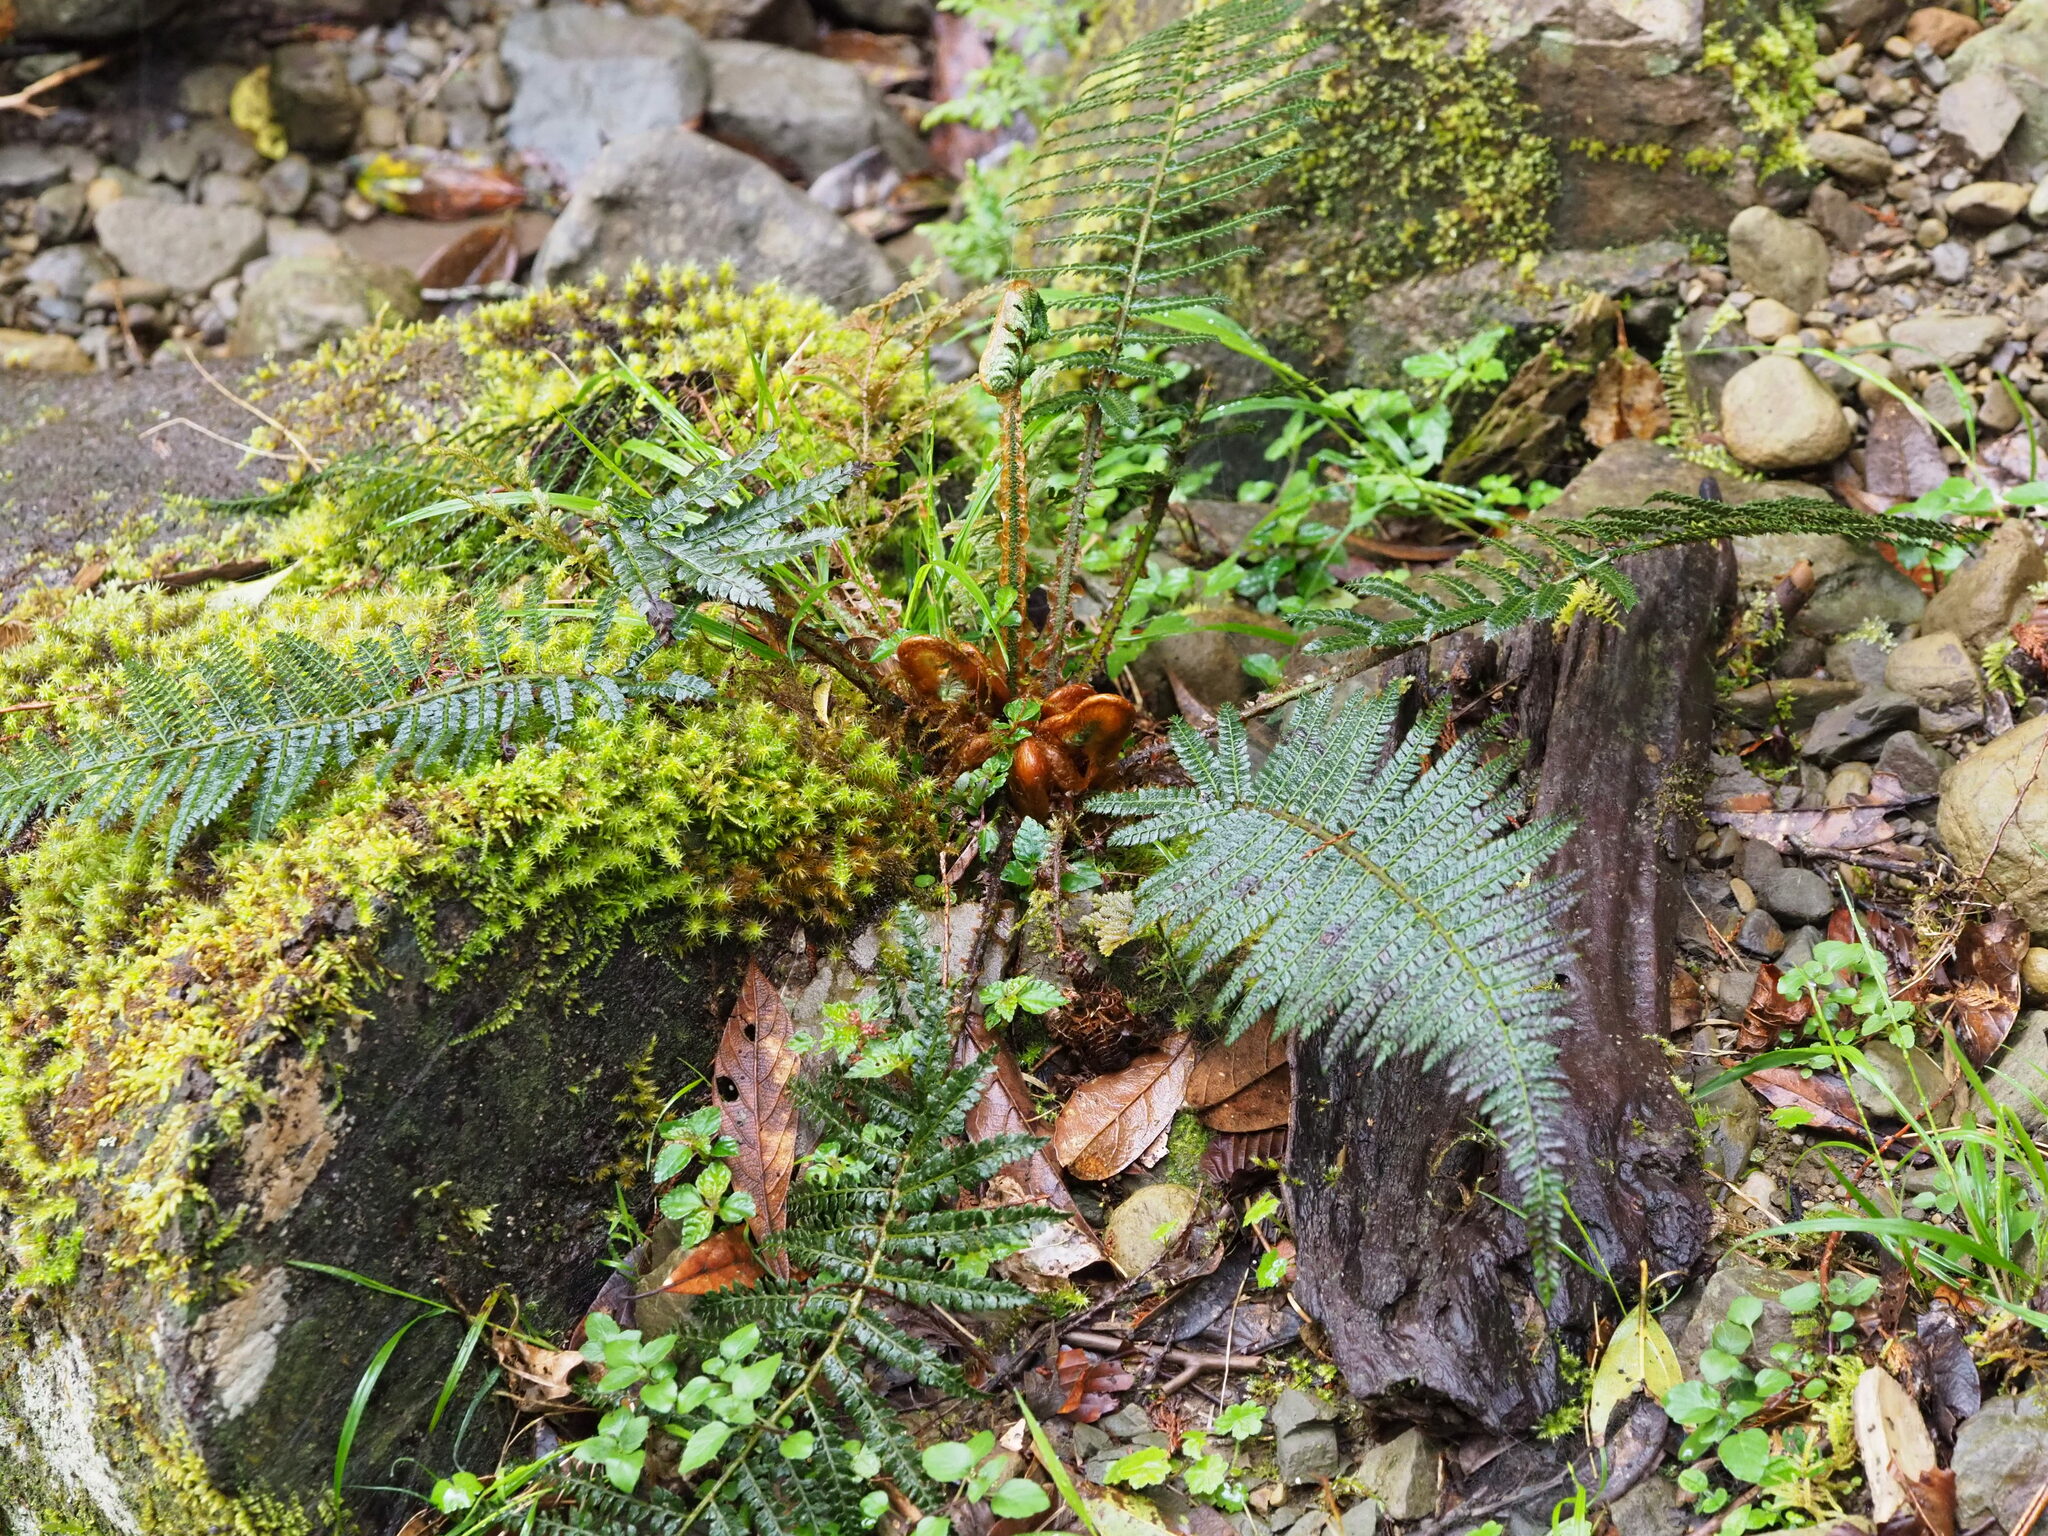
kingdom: Plantae
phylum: Tracheophyta
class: Polypodiopsida
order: Polypodiales
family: Dryopteridaceae
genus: Polystichum
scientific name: Polystichum parvipinnulum
